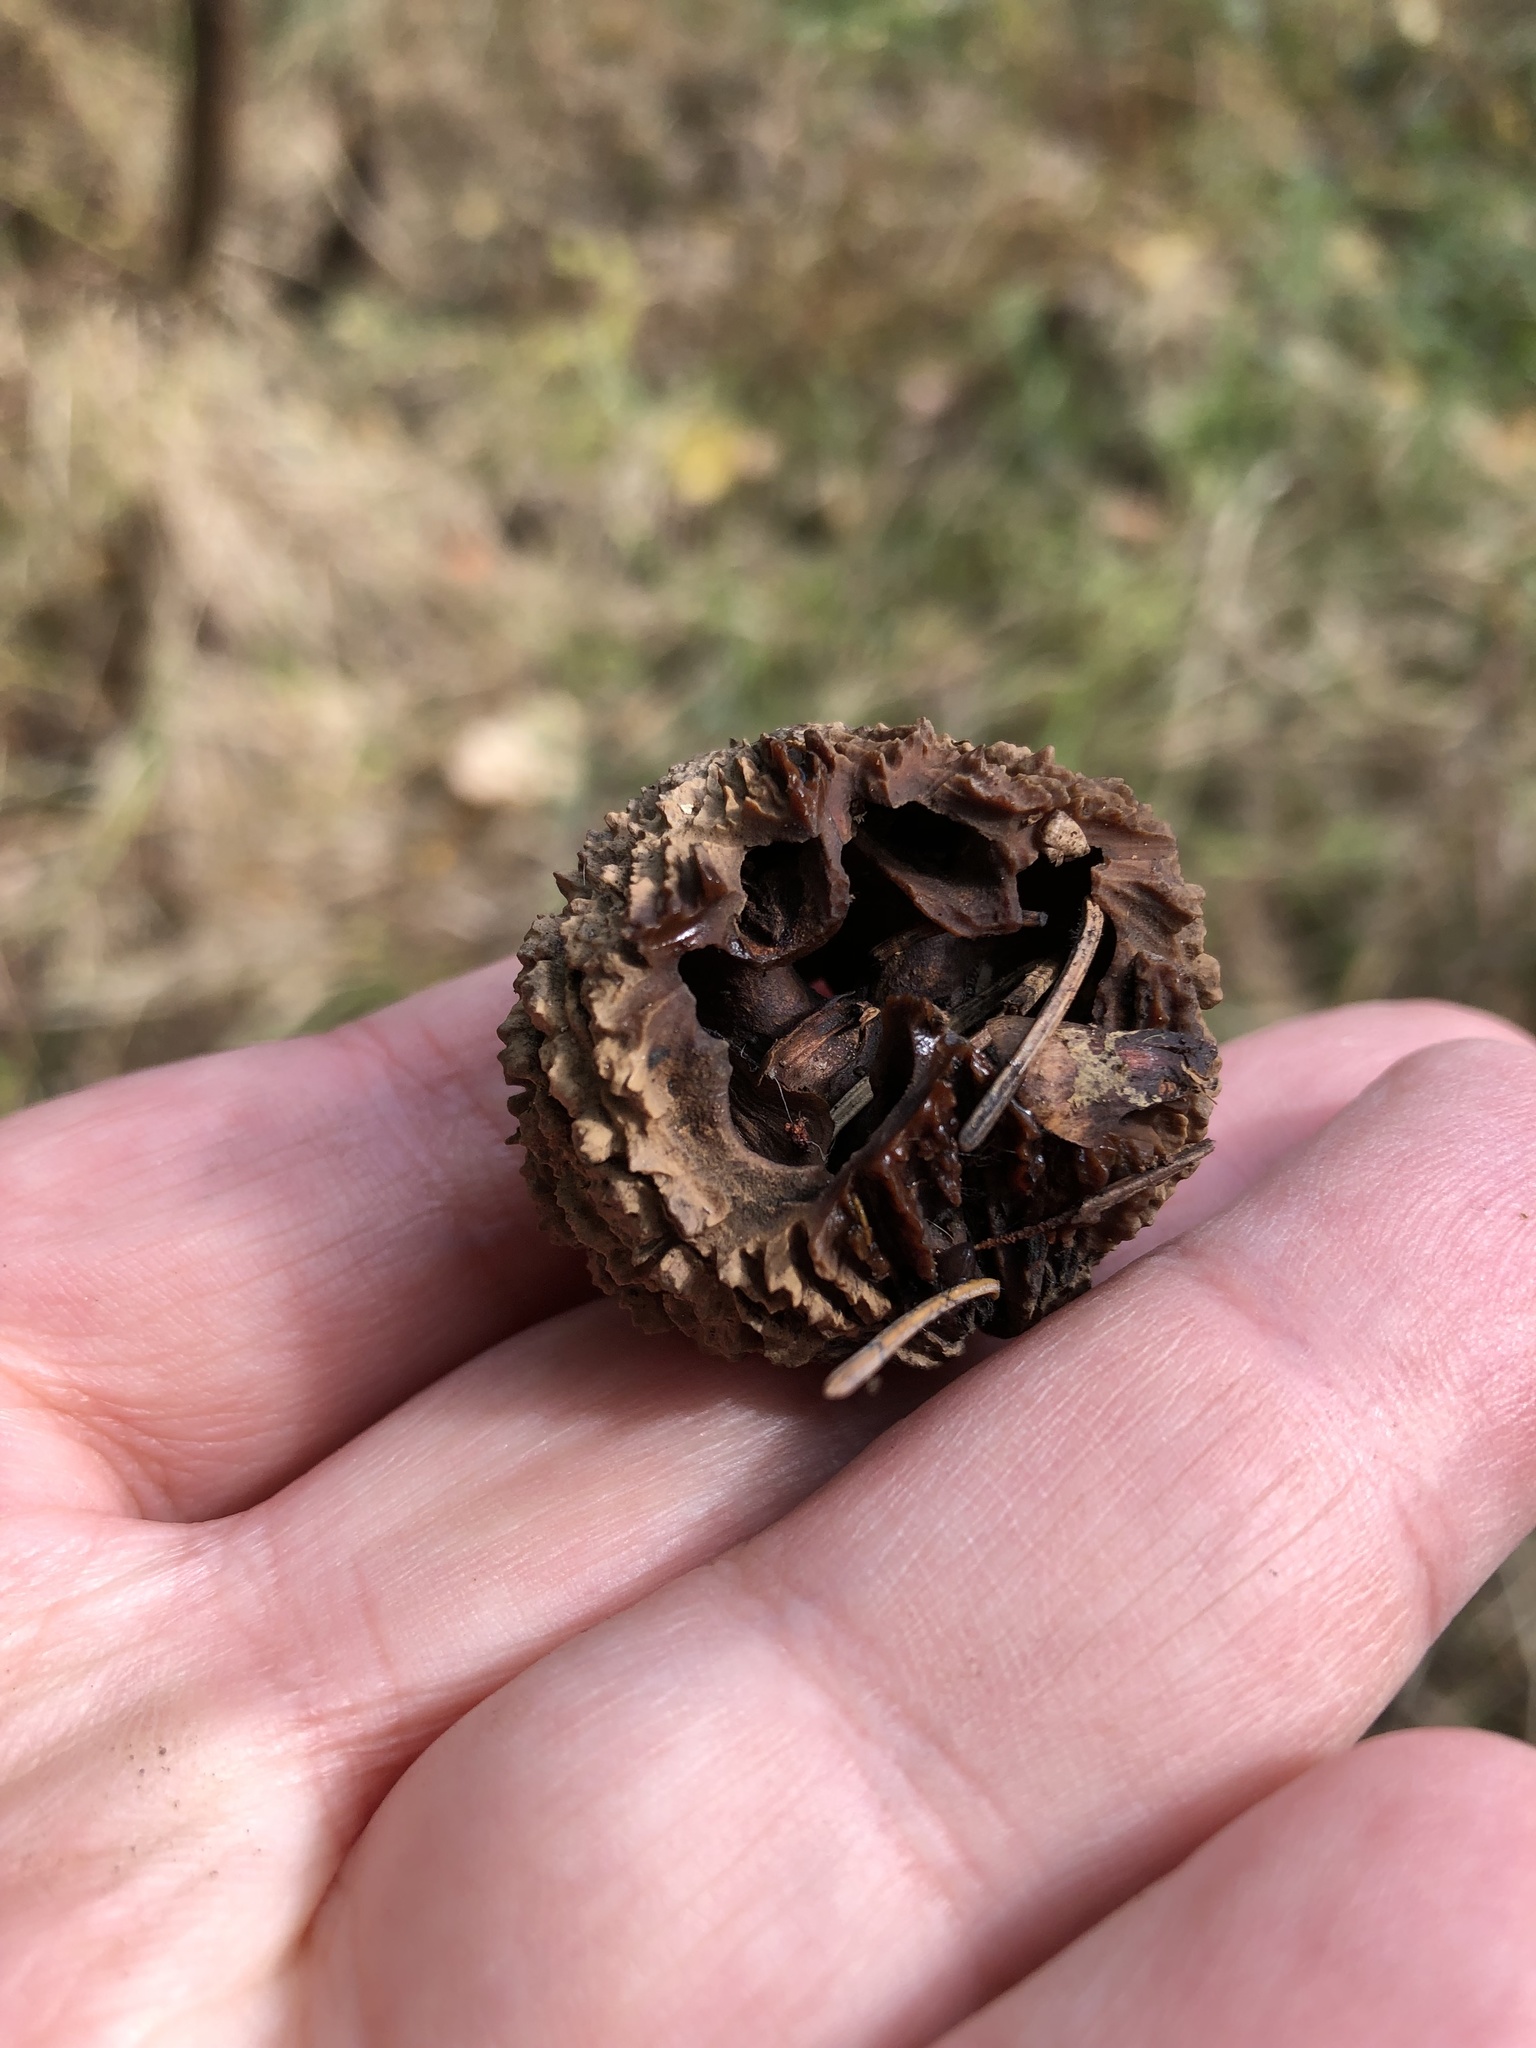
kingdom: Plantae
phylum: Tracheophyta
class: Magnoliopsida
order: Fagales
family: Juglandaceae
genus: Juglans
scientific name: Juglans nigra
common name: Black walnut
